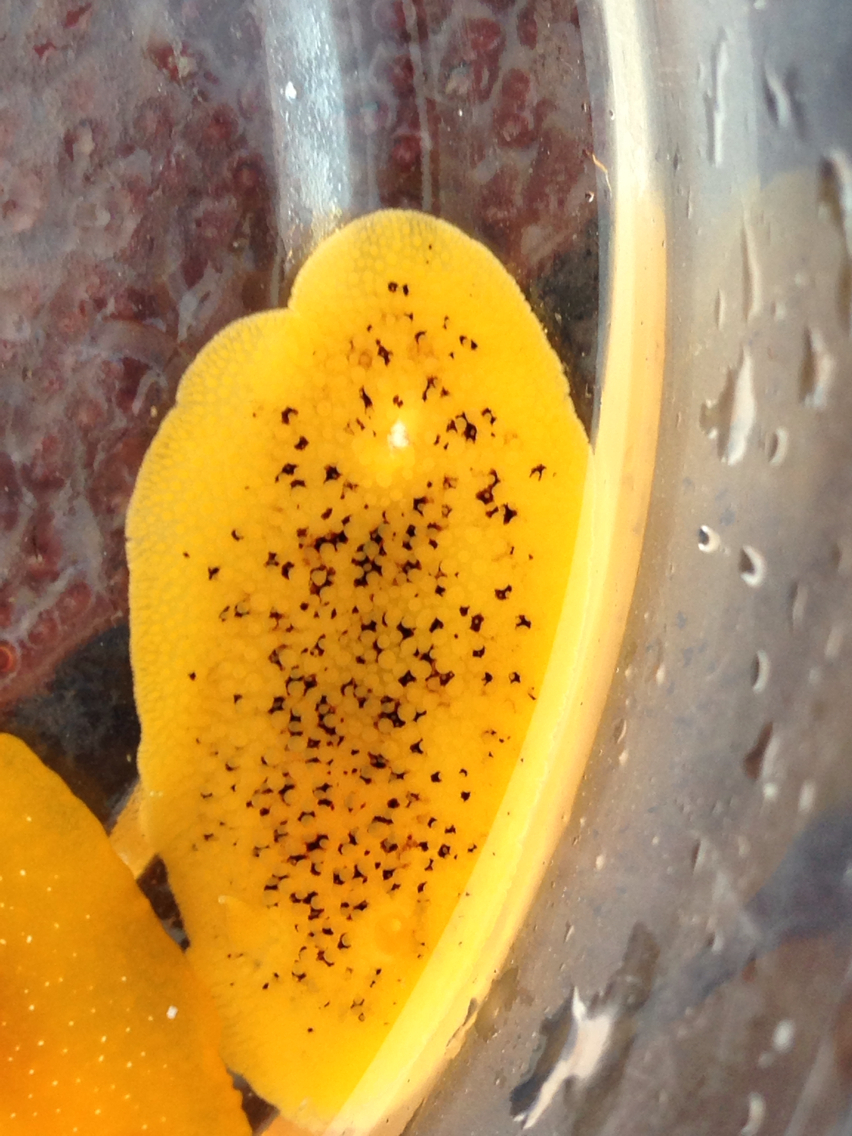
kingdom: Animalia
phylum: Mollusca
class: Gastropoda
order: Nudibranchia
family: Discodorididae
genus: Peltodoris
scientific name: Peltodoris nobilis
